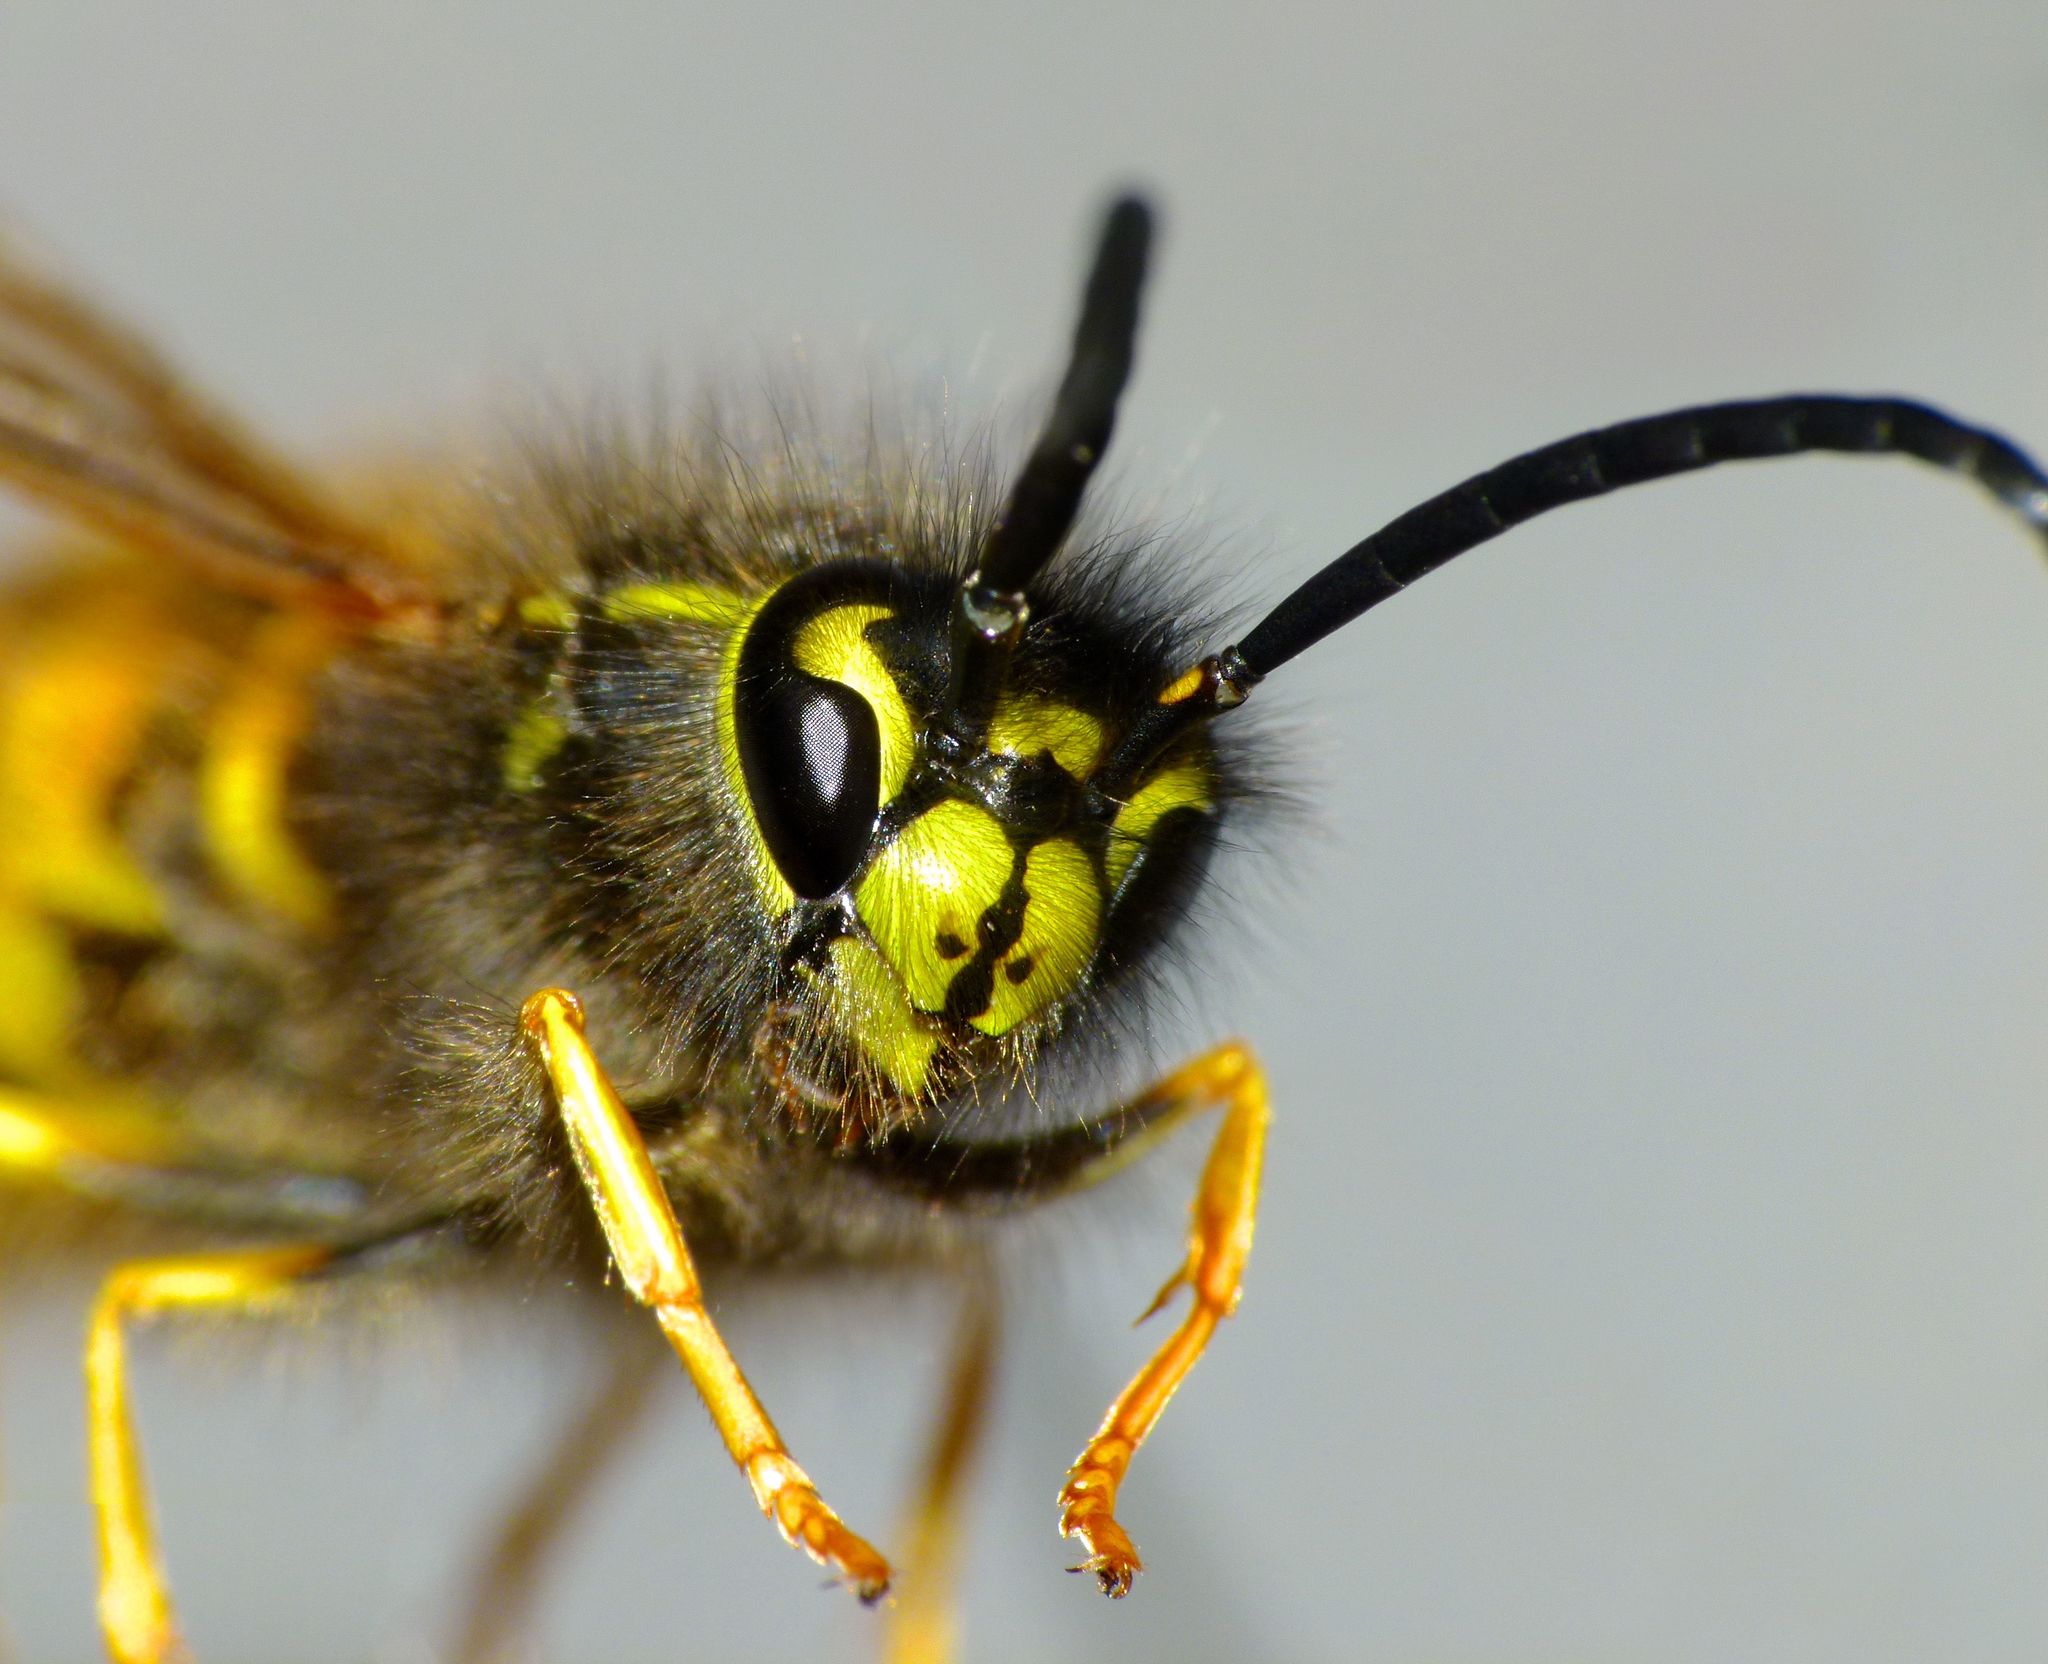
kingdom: Animalia
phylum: Arthropoda
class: Insecta
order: Hymenoptera
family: Vespidae
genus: Vespula
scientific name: Vespula vulgaris
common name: Common wasp
